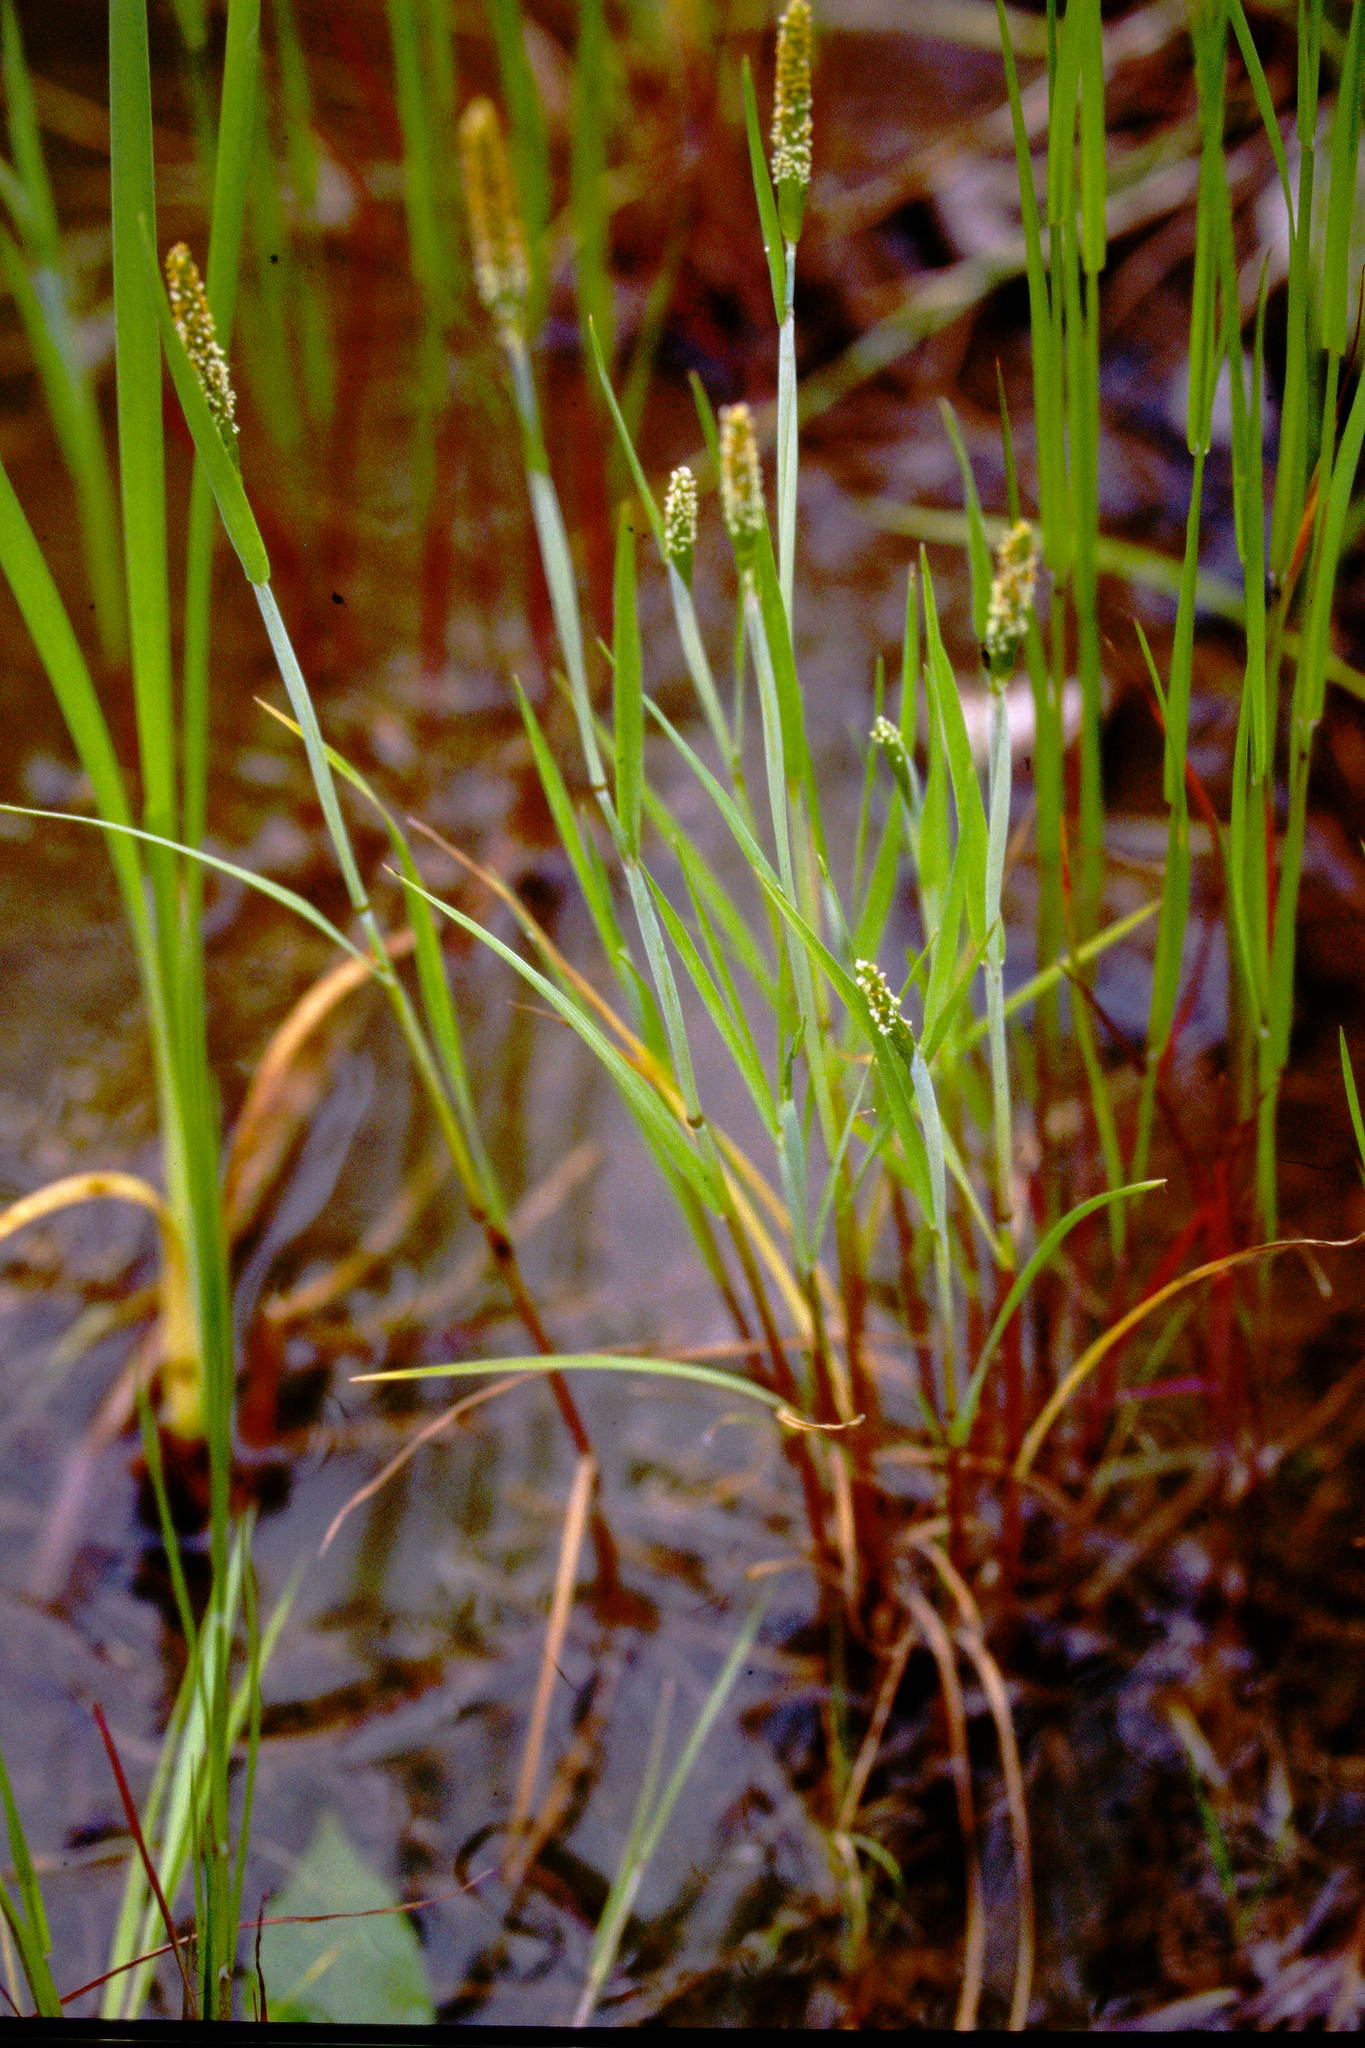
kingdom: Plantae
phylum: Tracheophyta
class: Liliopsida
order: Poales
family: Poaceae
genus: Alopecurus
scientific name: Alopecurus aequalis
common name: Orange foxtail
